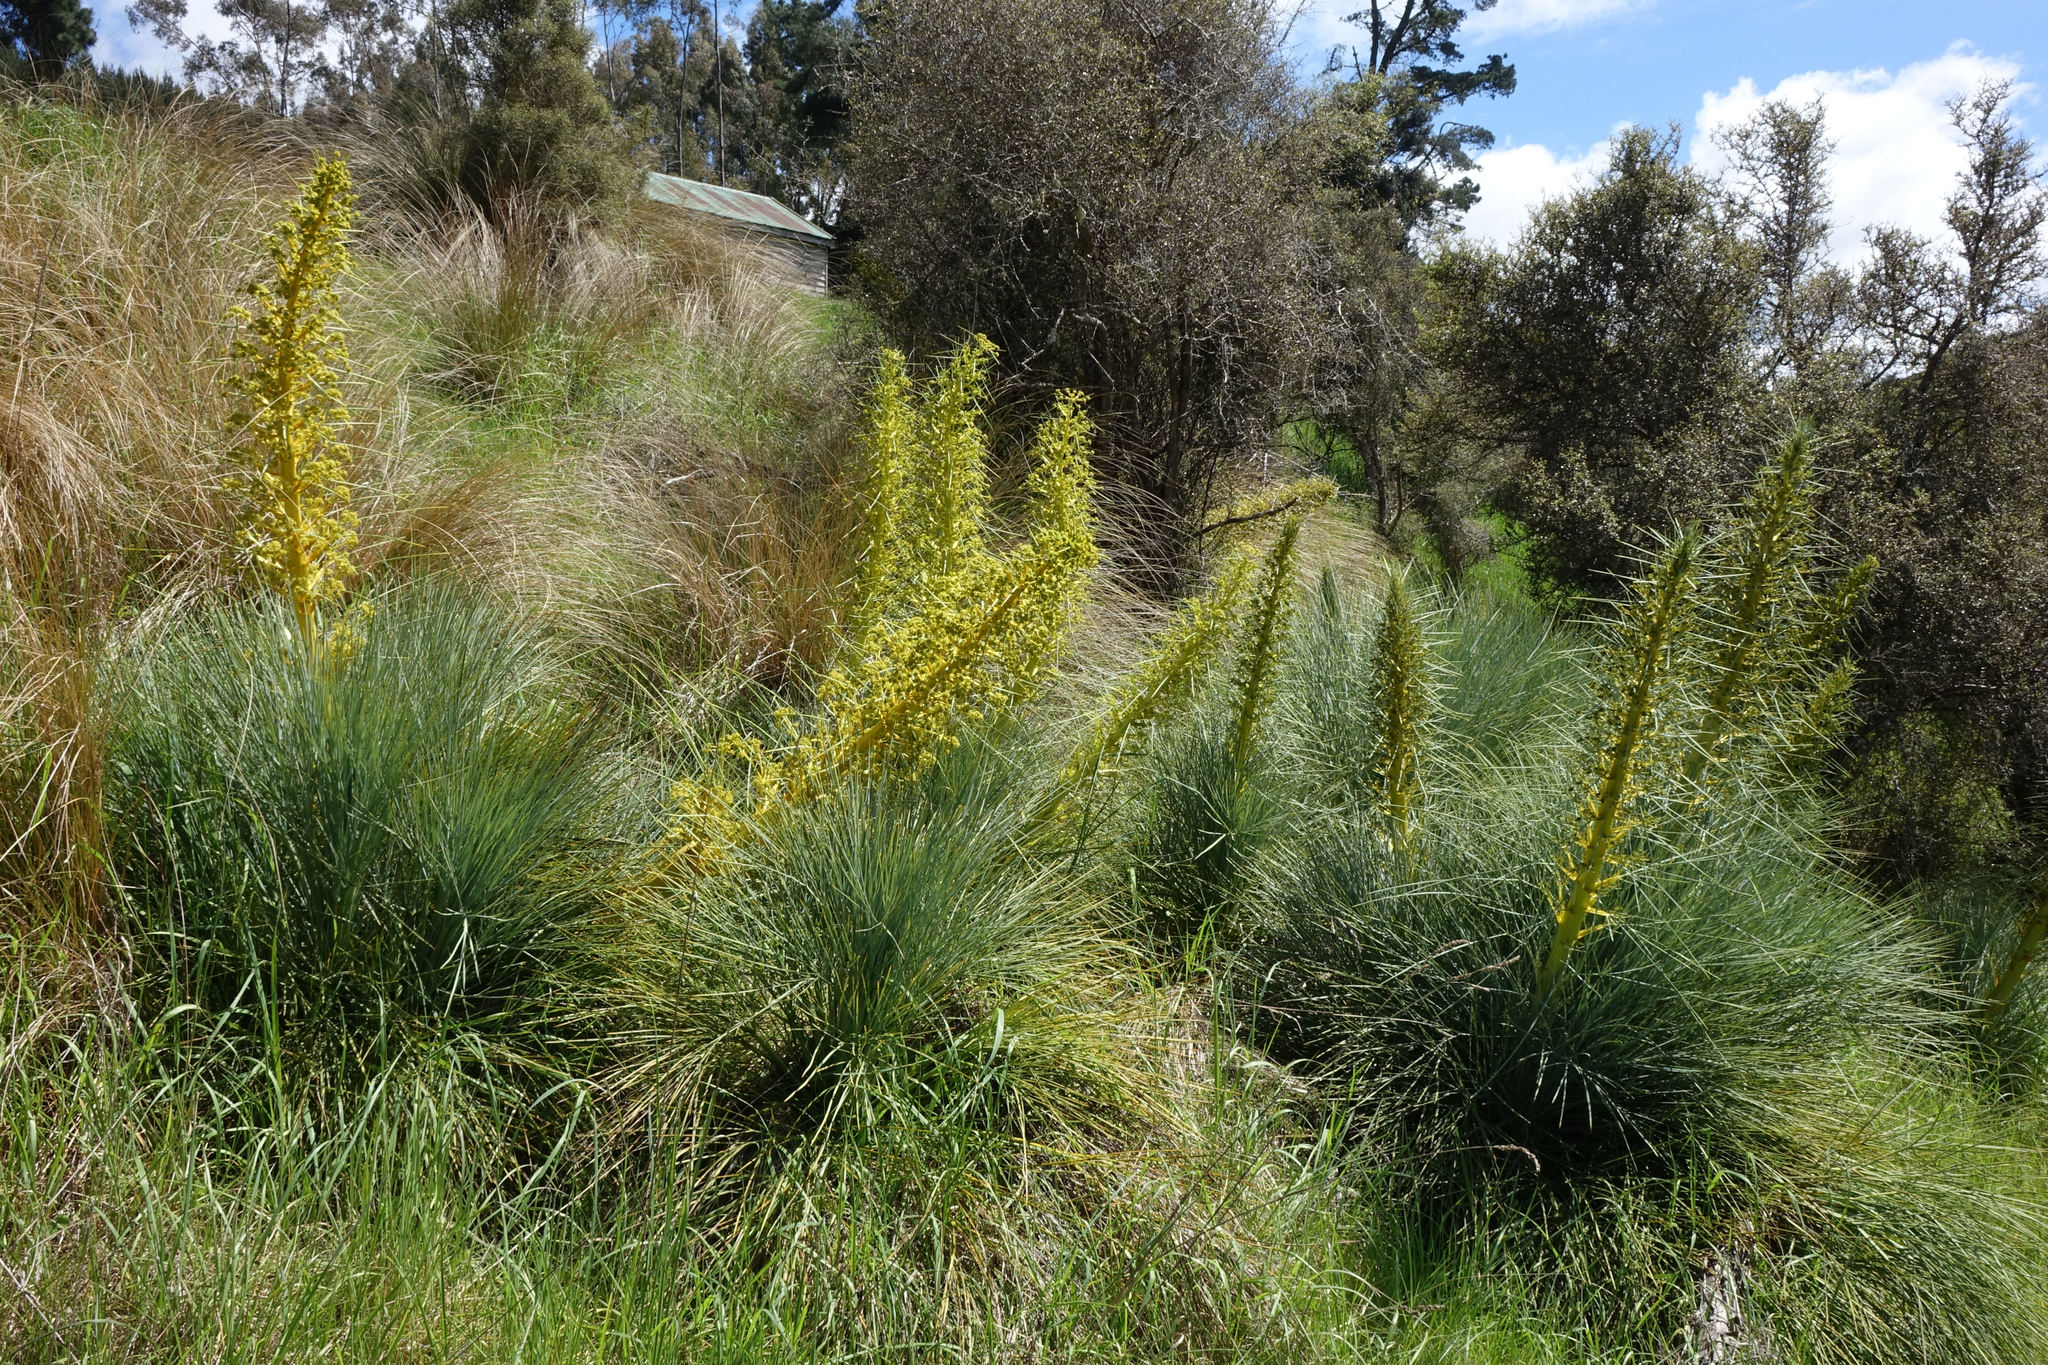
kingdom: Plantae
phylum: Tracheophyta
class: Magnoliopsida
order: Apiales
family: Apiaceae
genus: Aciphylla
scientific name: Aciphylla glaucescens
